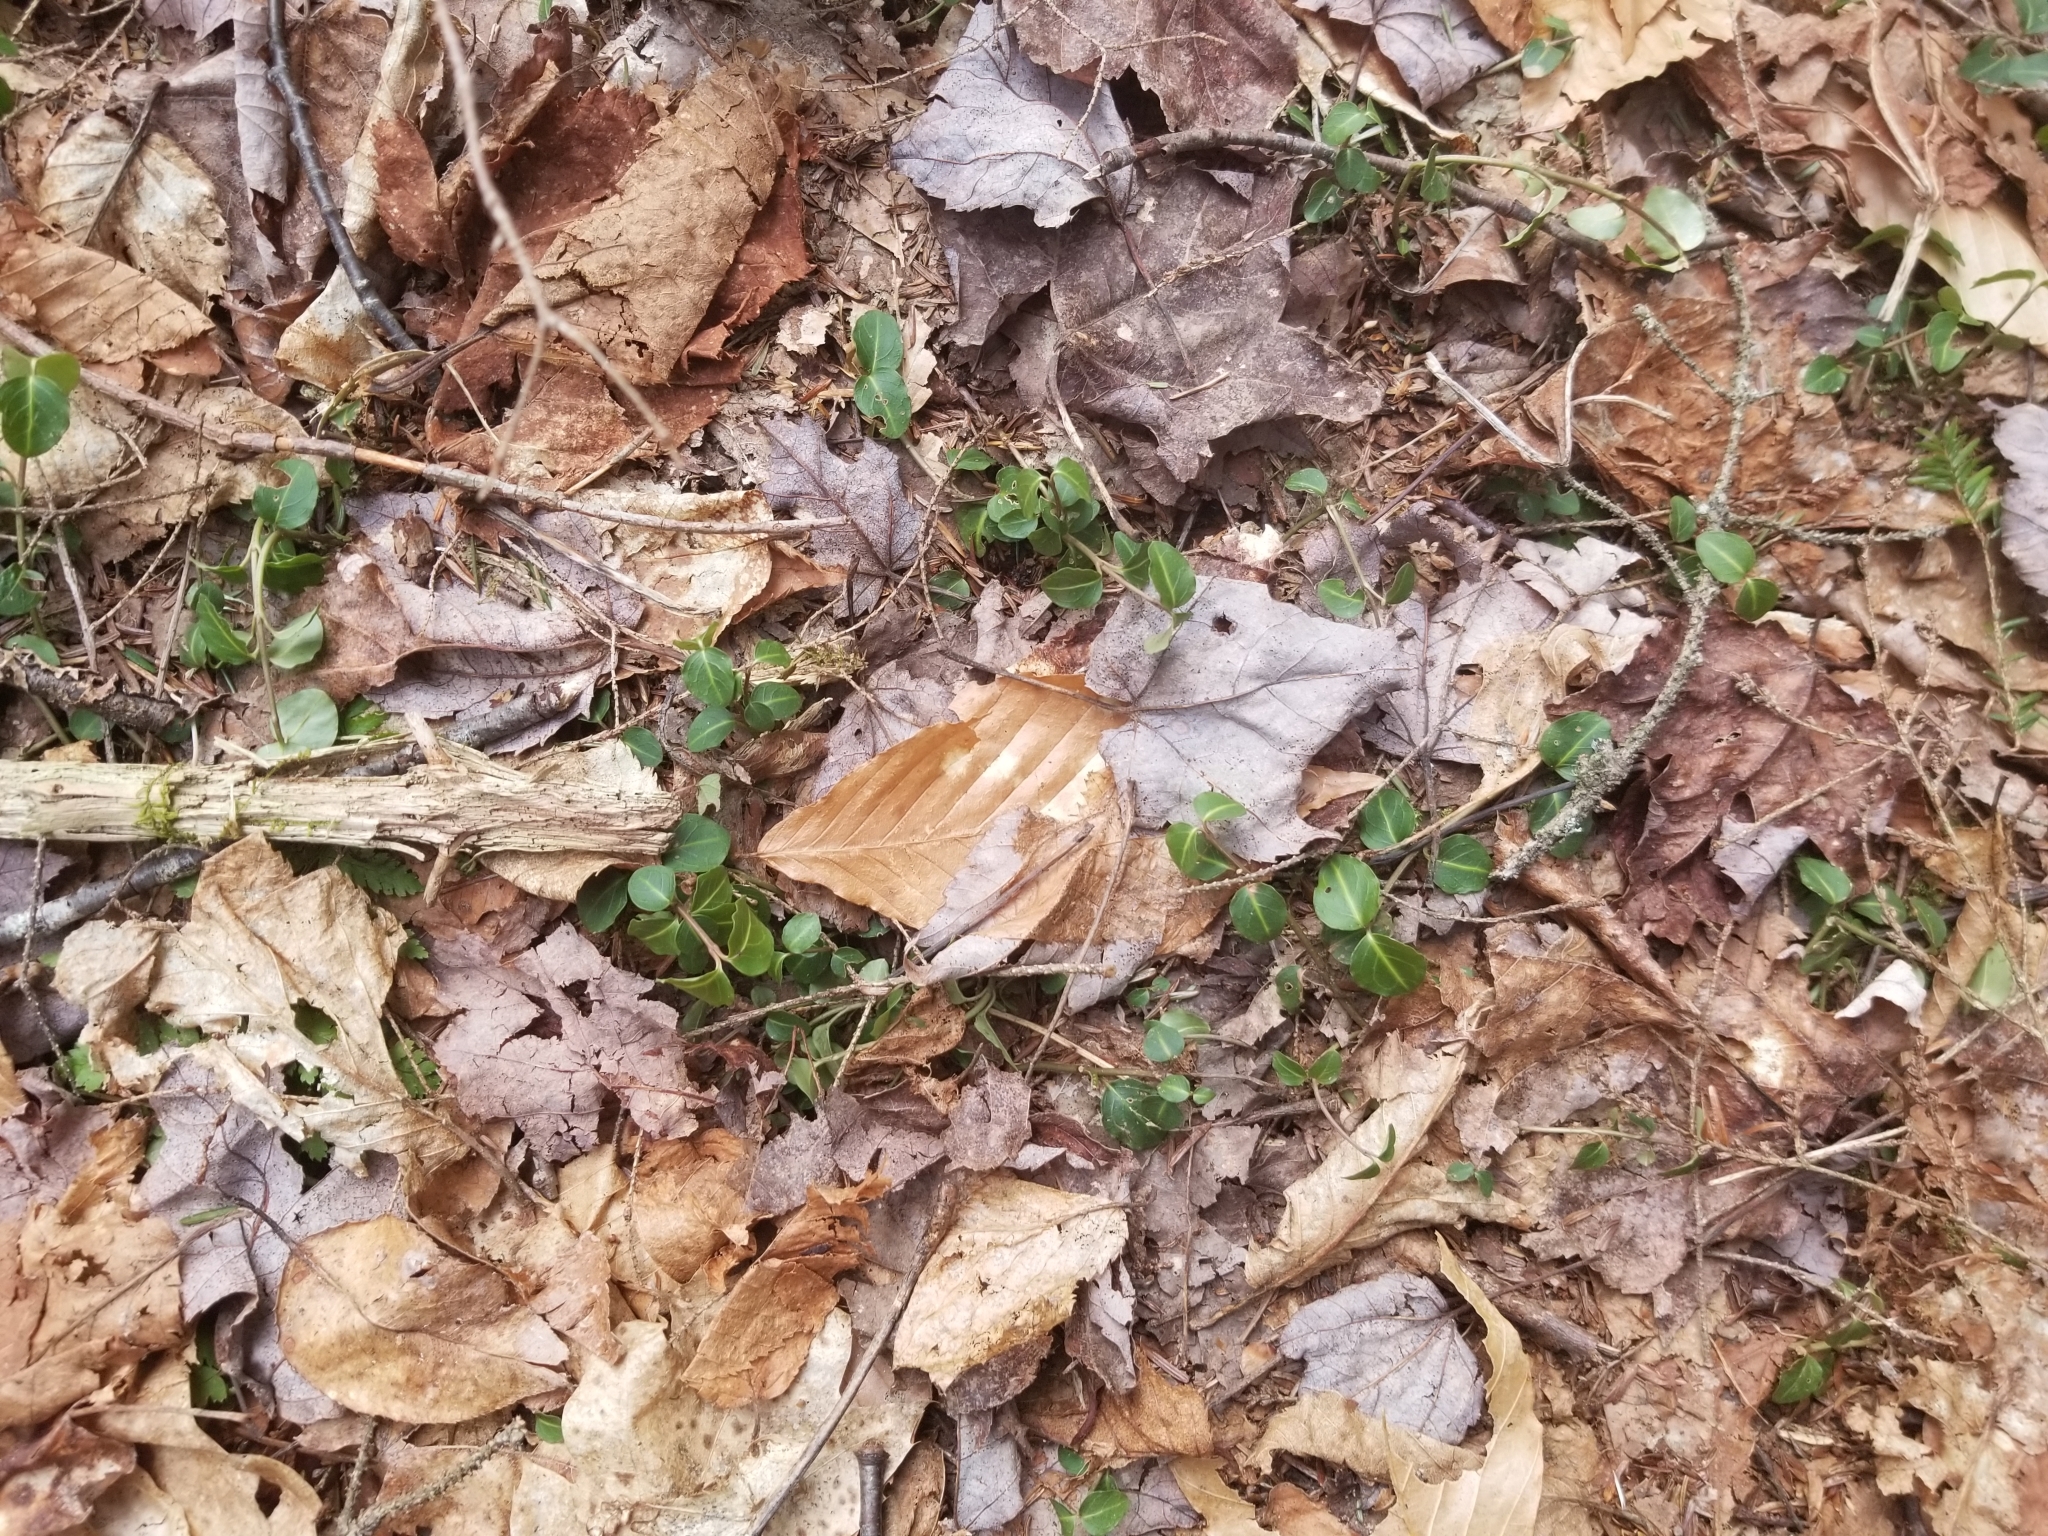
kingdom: Plantae
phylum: Tracheophyta
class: Magnoliopsida
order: Gentianales
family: Rubiaceae
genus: Mitchella
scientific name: Mitchella repens
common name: Partridge-berry
